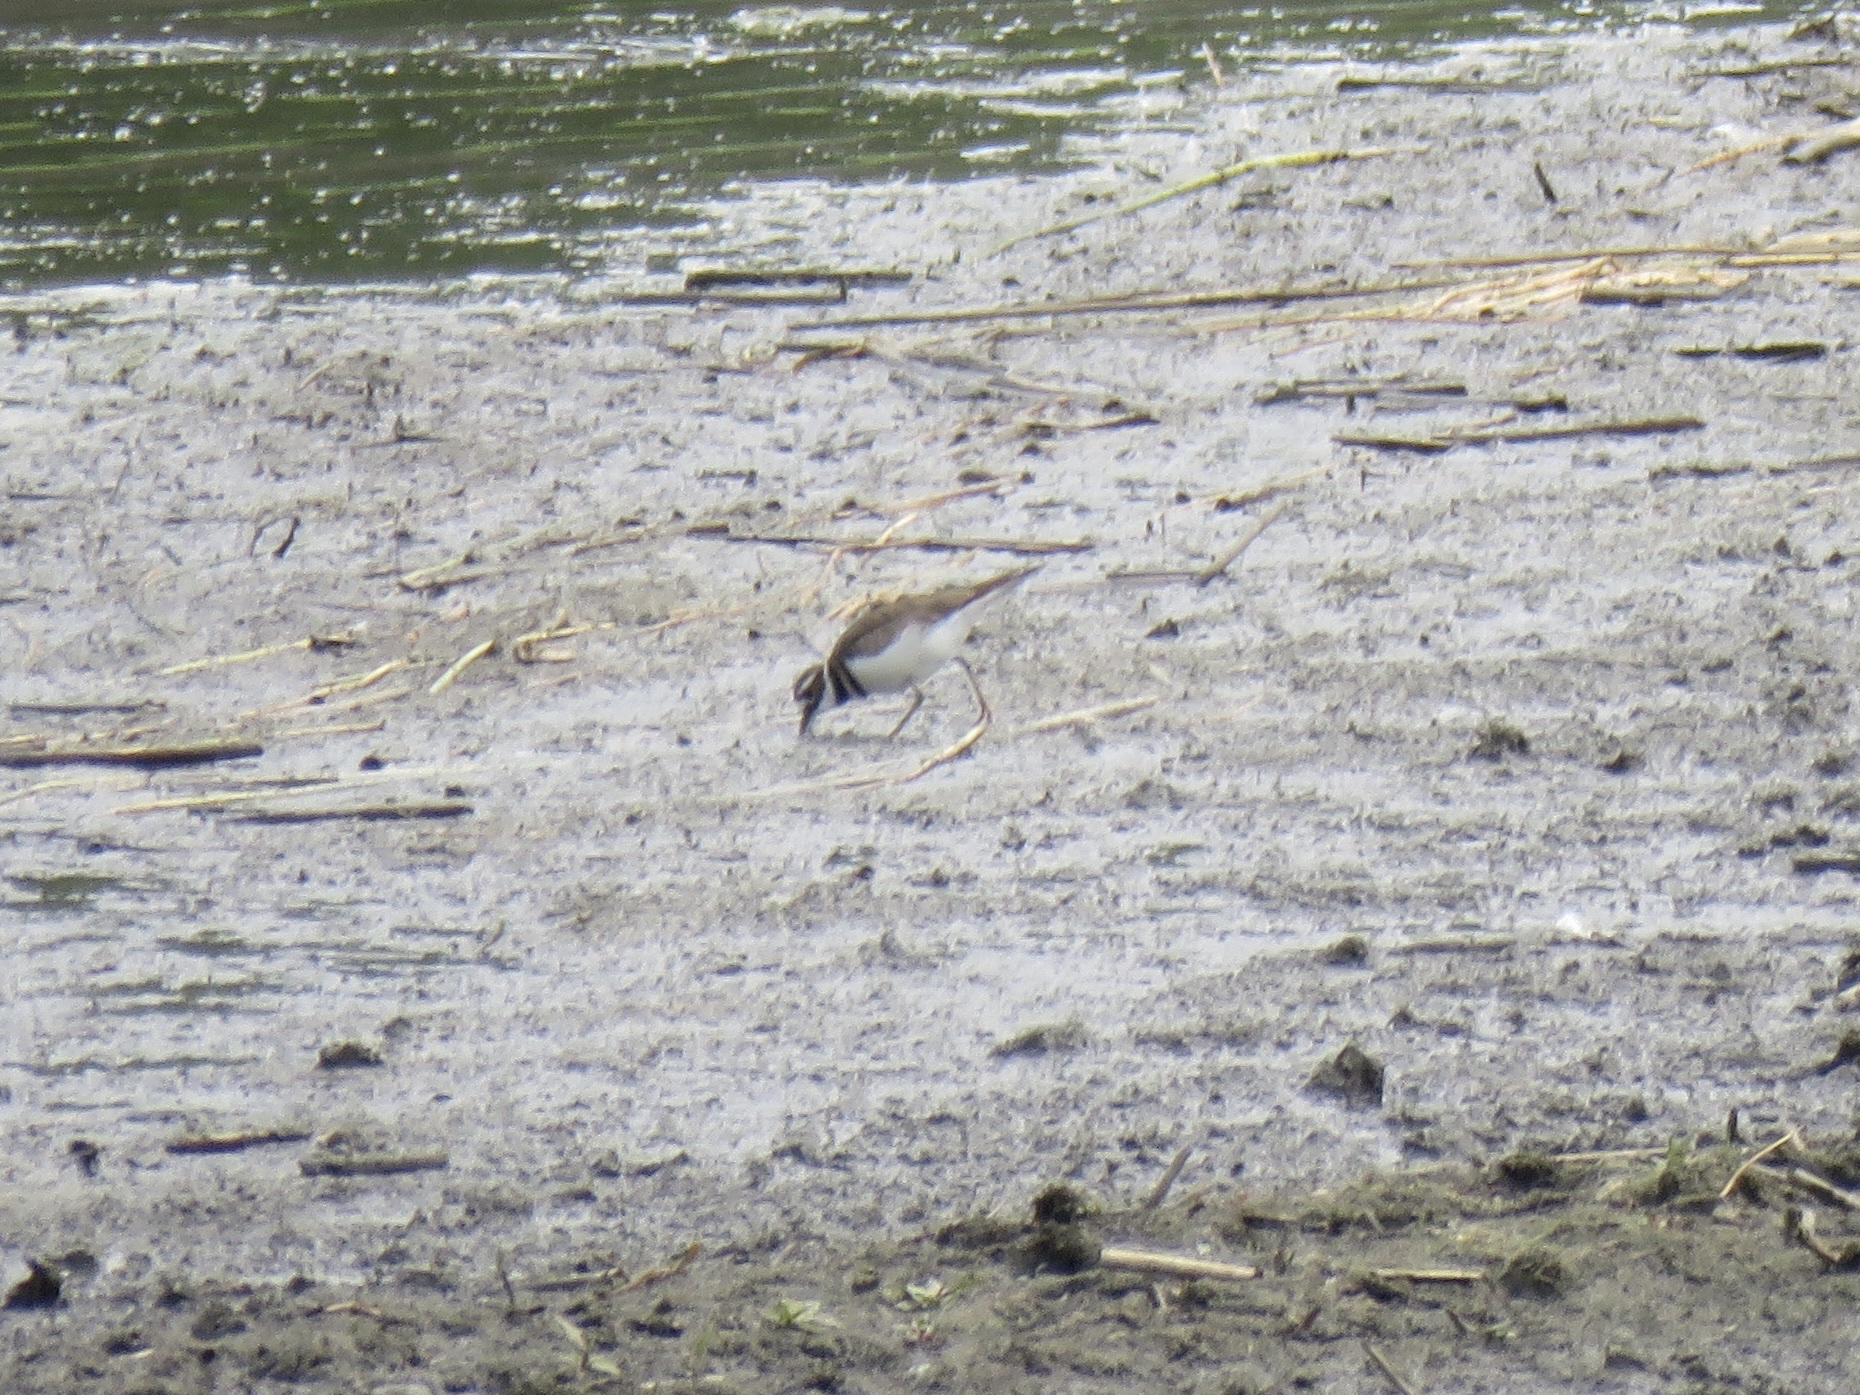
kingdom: Animalia
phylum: Chordata
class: Aves
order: Charadriiformes
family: Charadriidae
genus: Charadrius
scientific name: Charadrius vociferus
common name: Killdeer
